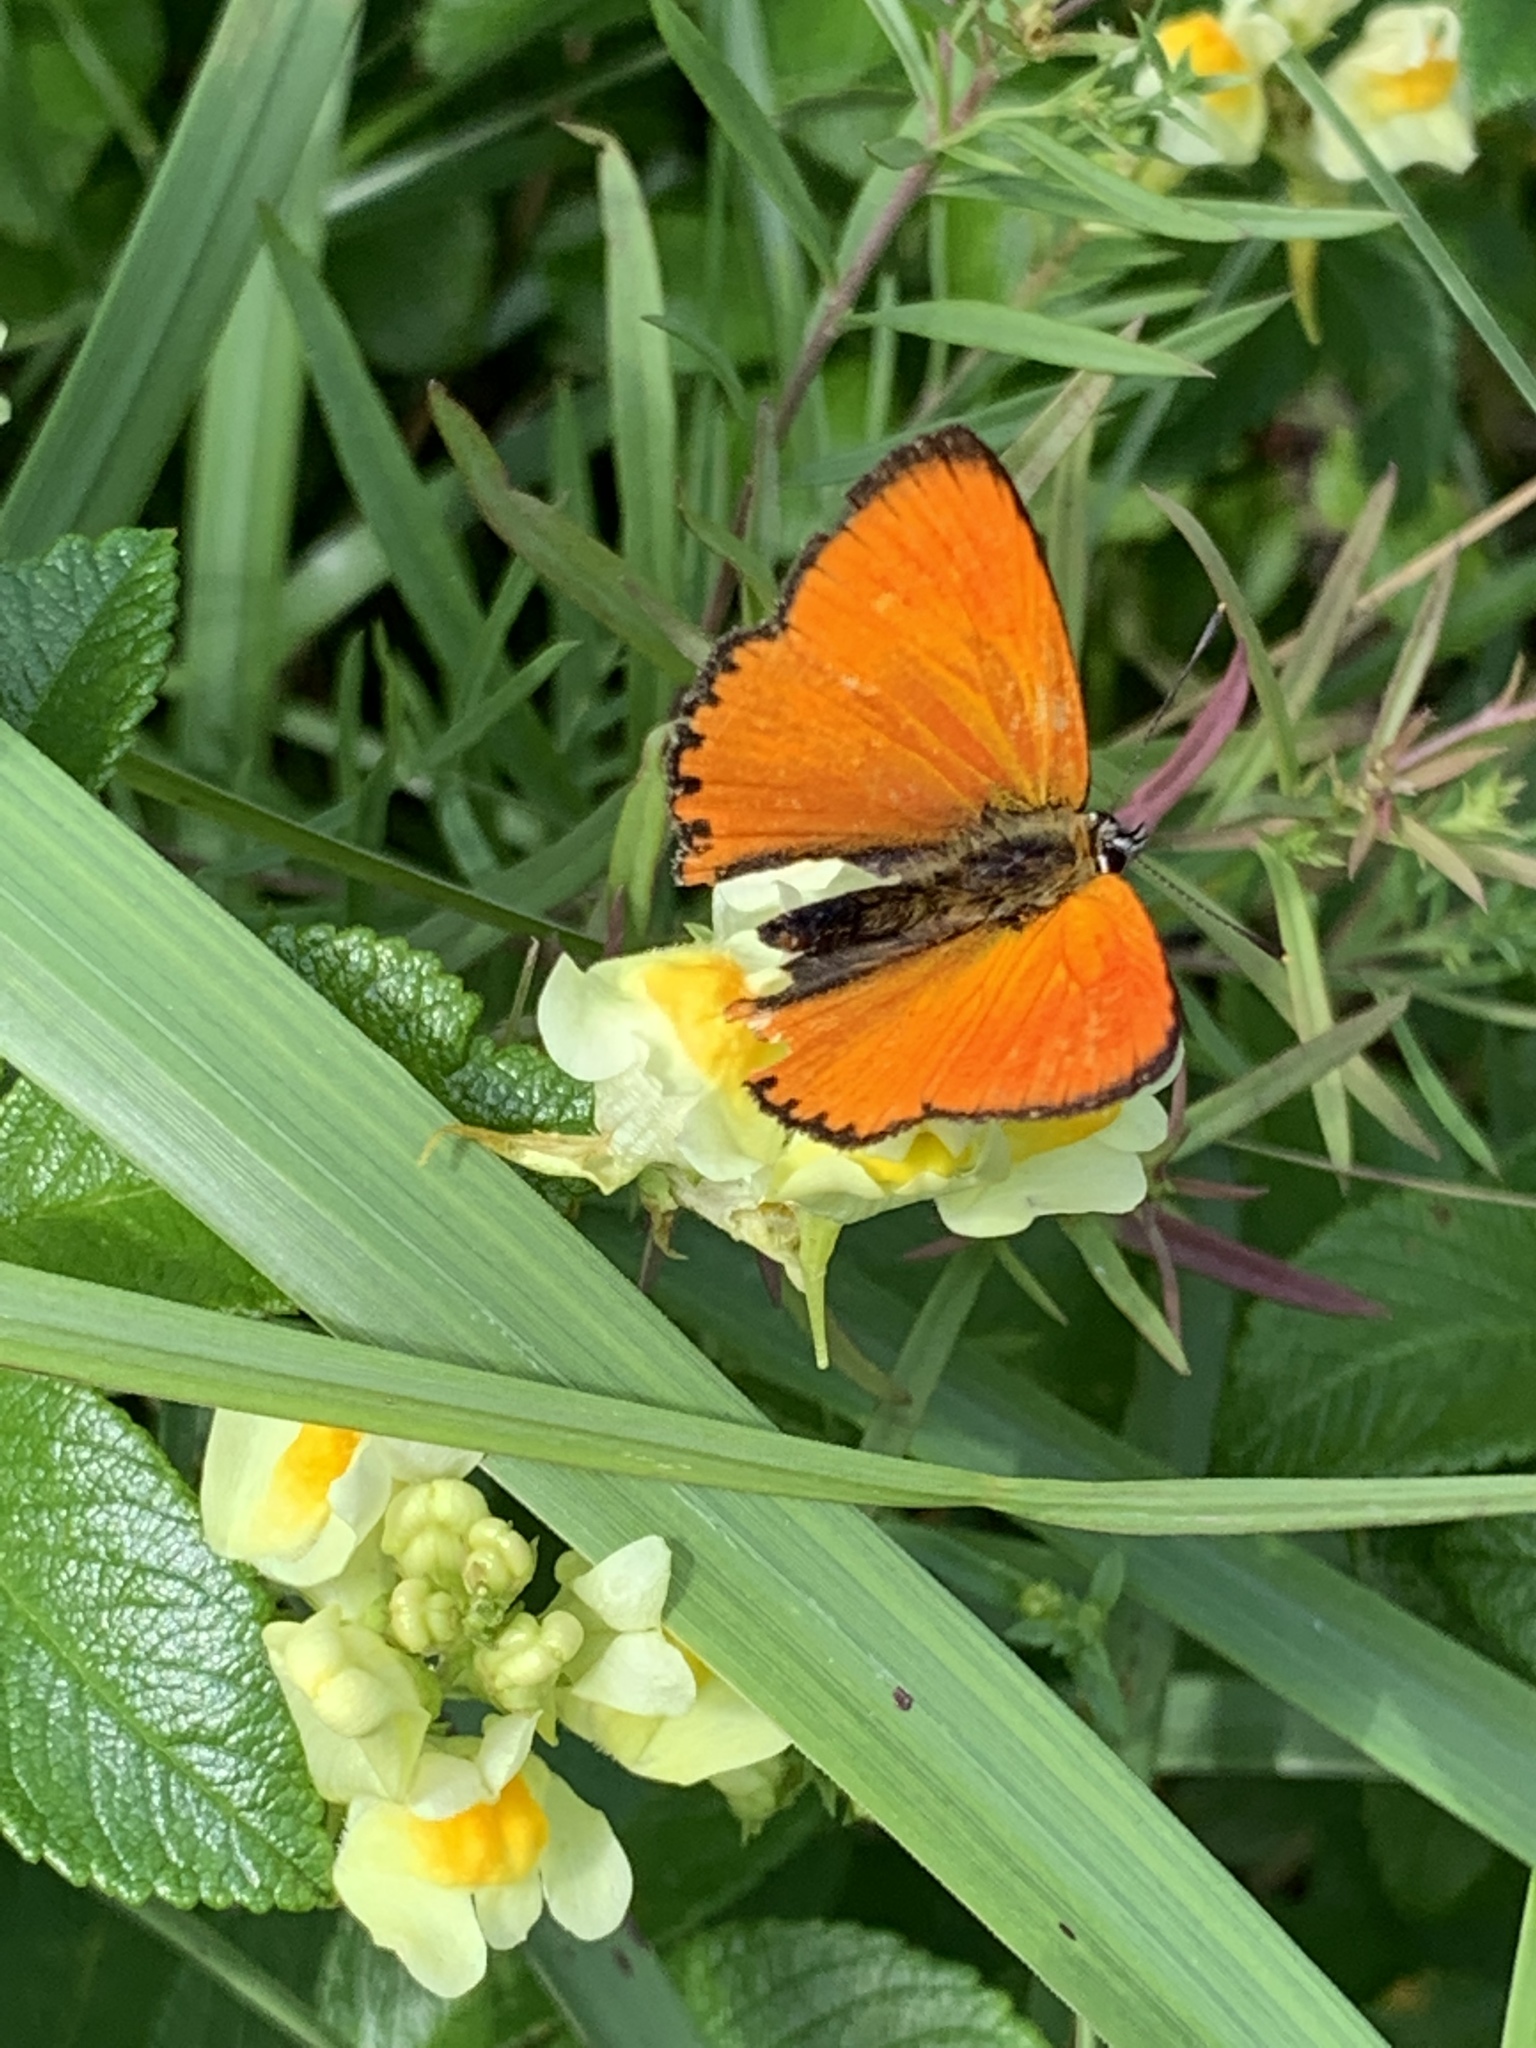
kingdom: Animalia
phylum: Arthropoda
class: Insecta
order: Lepidoptera
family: Lycaenidae
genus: Lycaena
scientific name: Lycaena virgaureae
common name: Scarce copper
